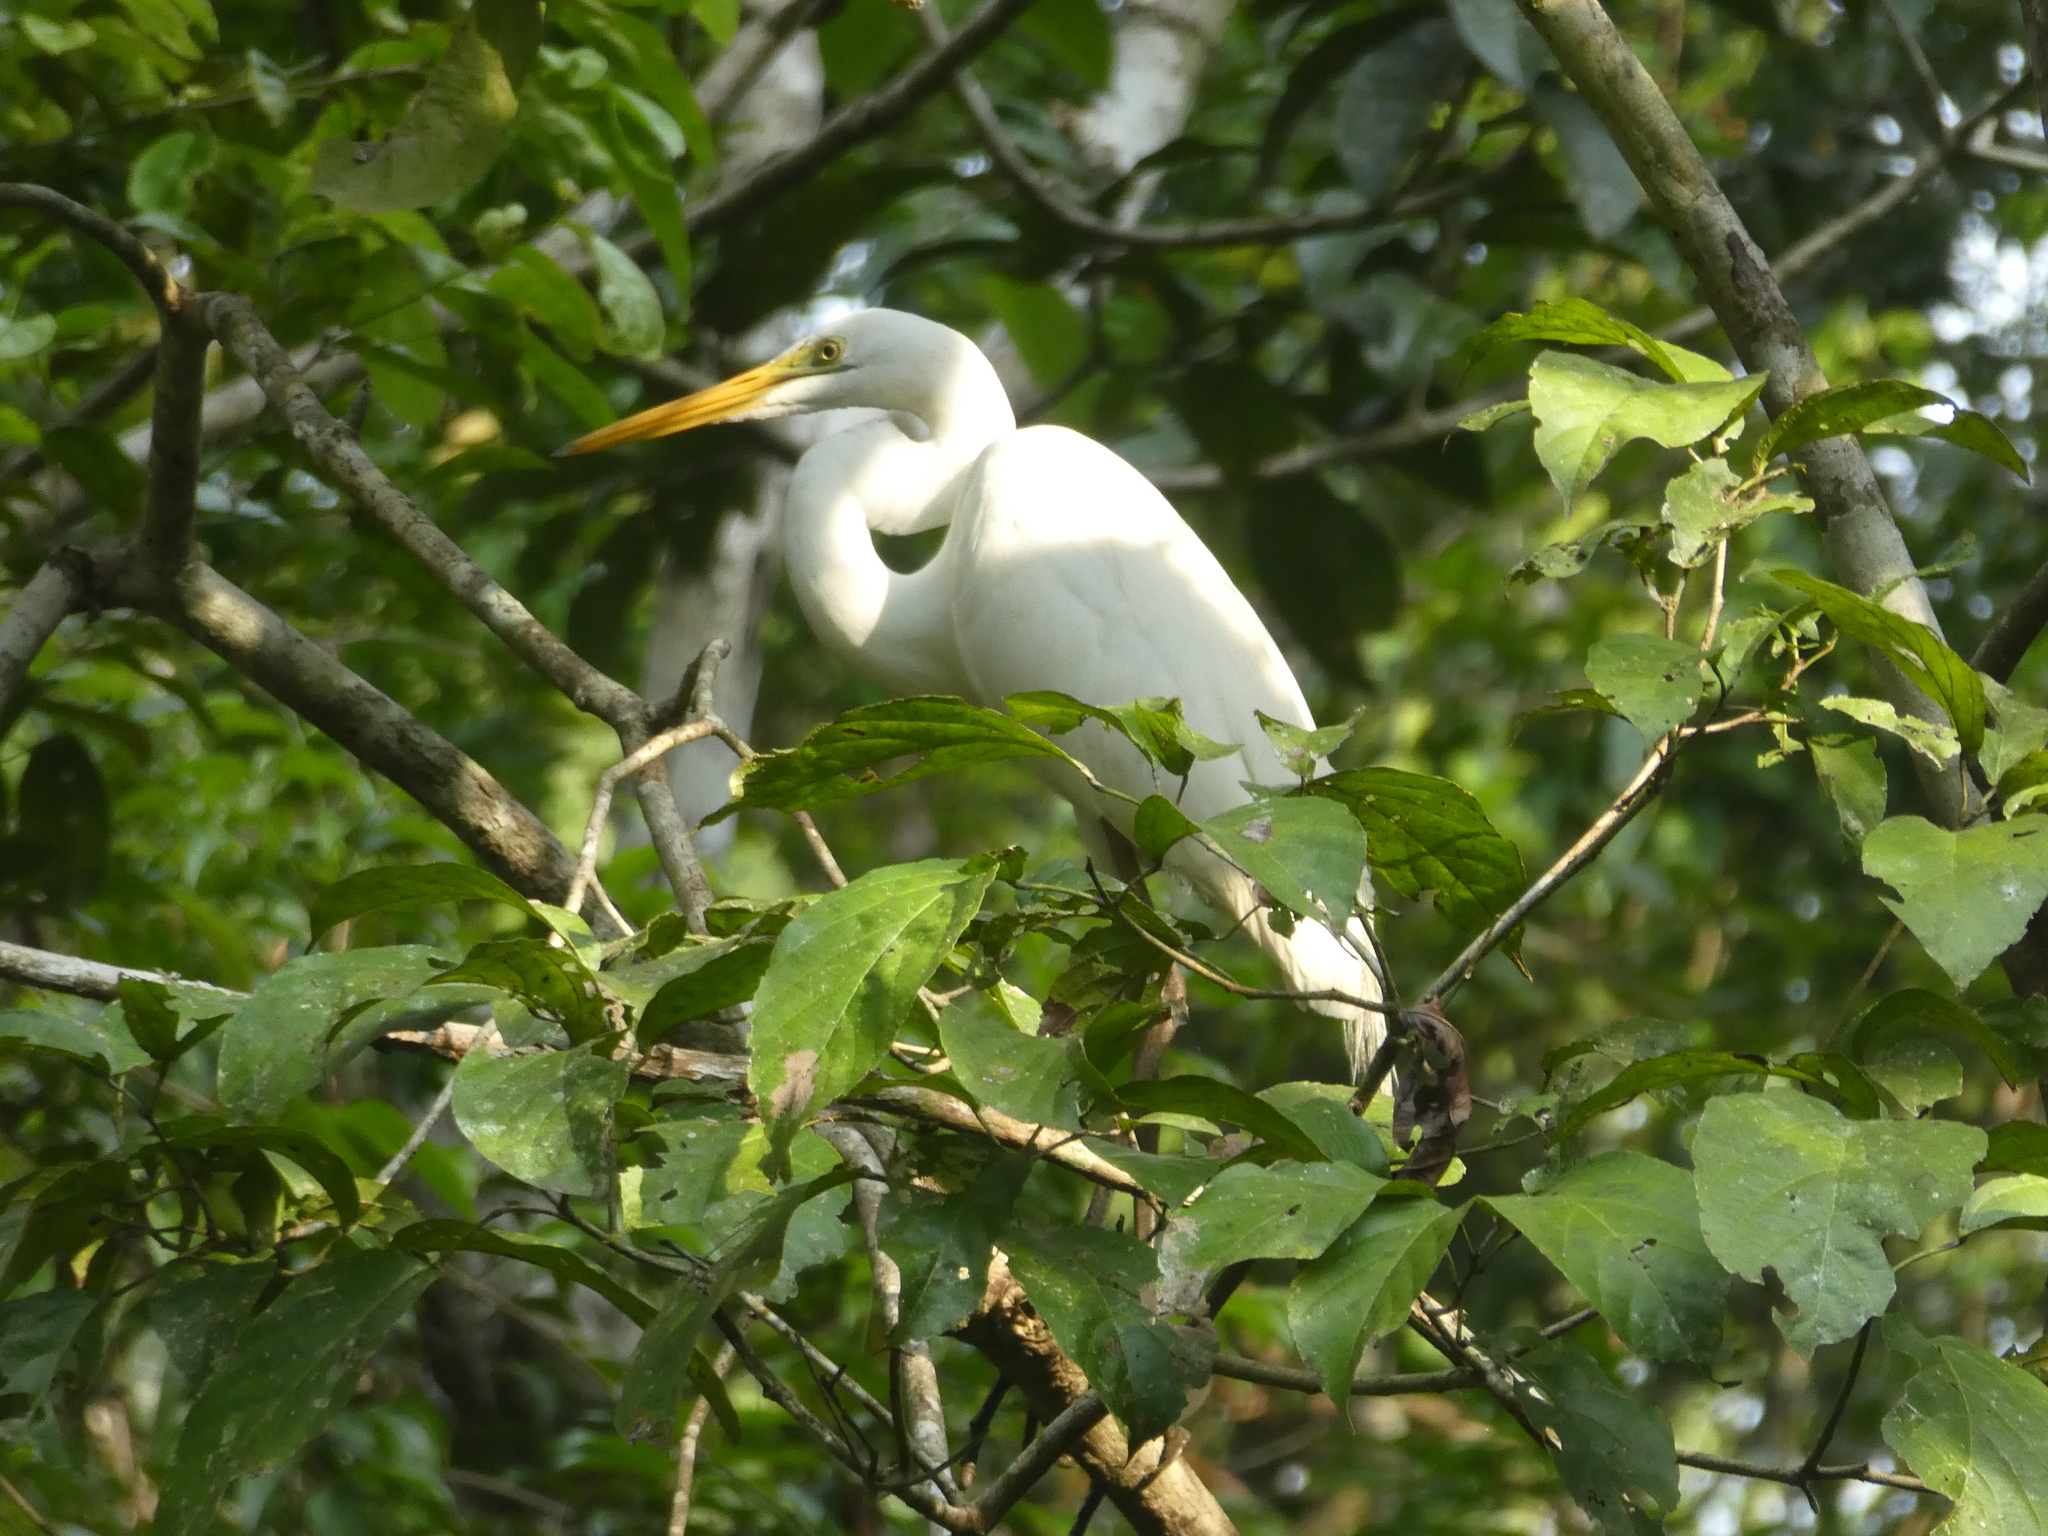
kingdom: Animalia
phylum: Chordata
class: Aves
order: Pelecaniformes
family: Ardeidae
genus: Ardea
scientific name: Ardea alba
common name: Great egret
